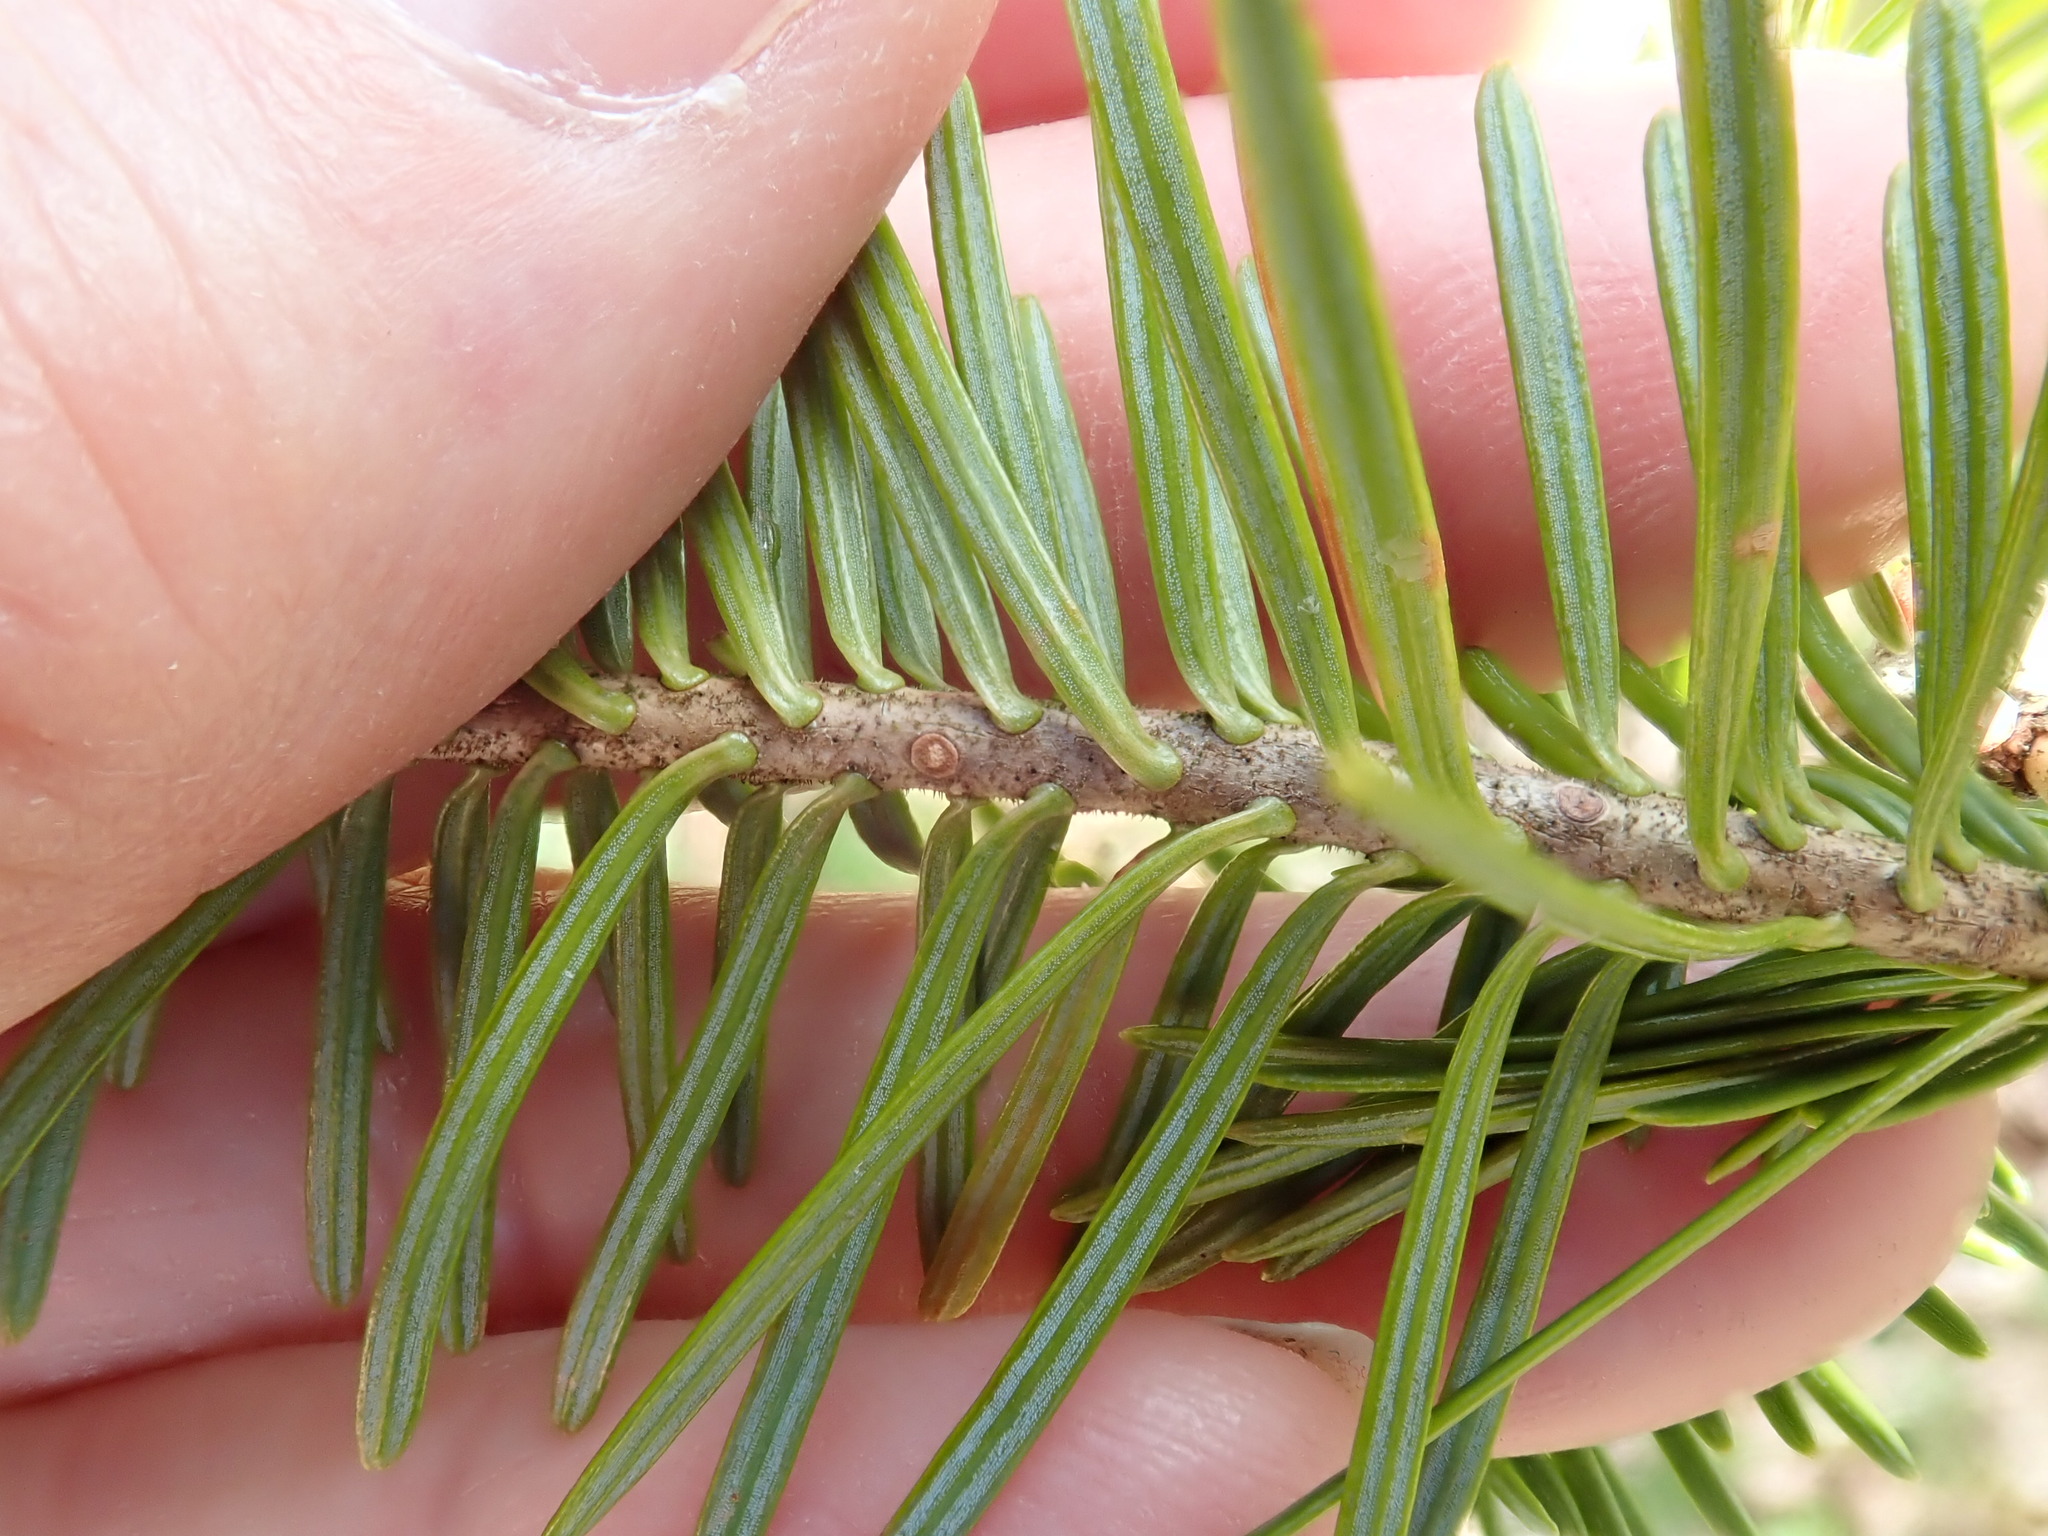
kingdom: Plantae
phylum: Tracheophyta
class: Pinopsida
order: Pinales
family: Pinaceae
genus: Abies
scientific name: Abies balsamea
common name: Balsam fir
